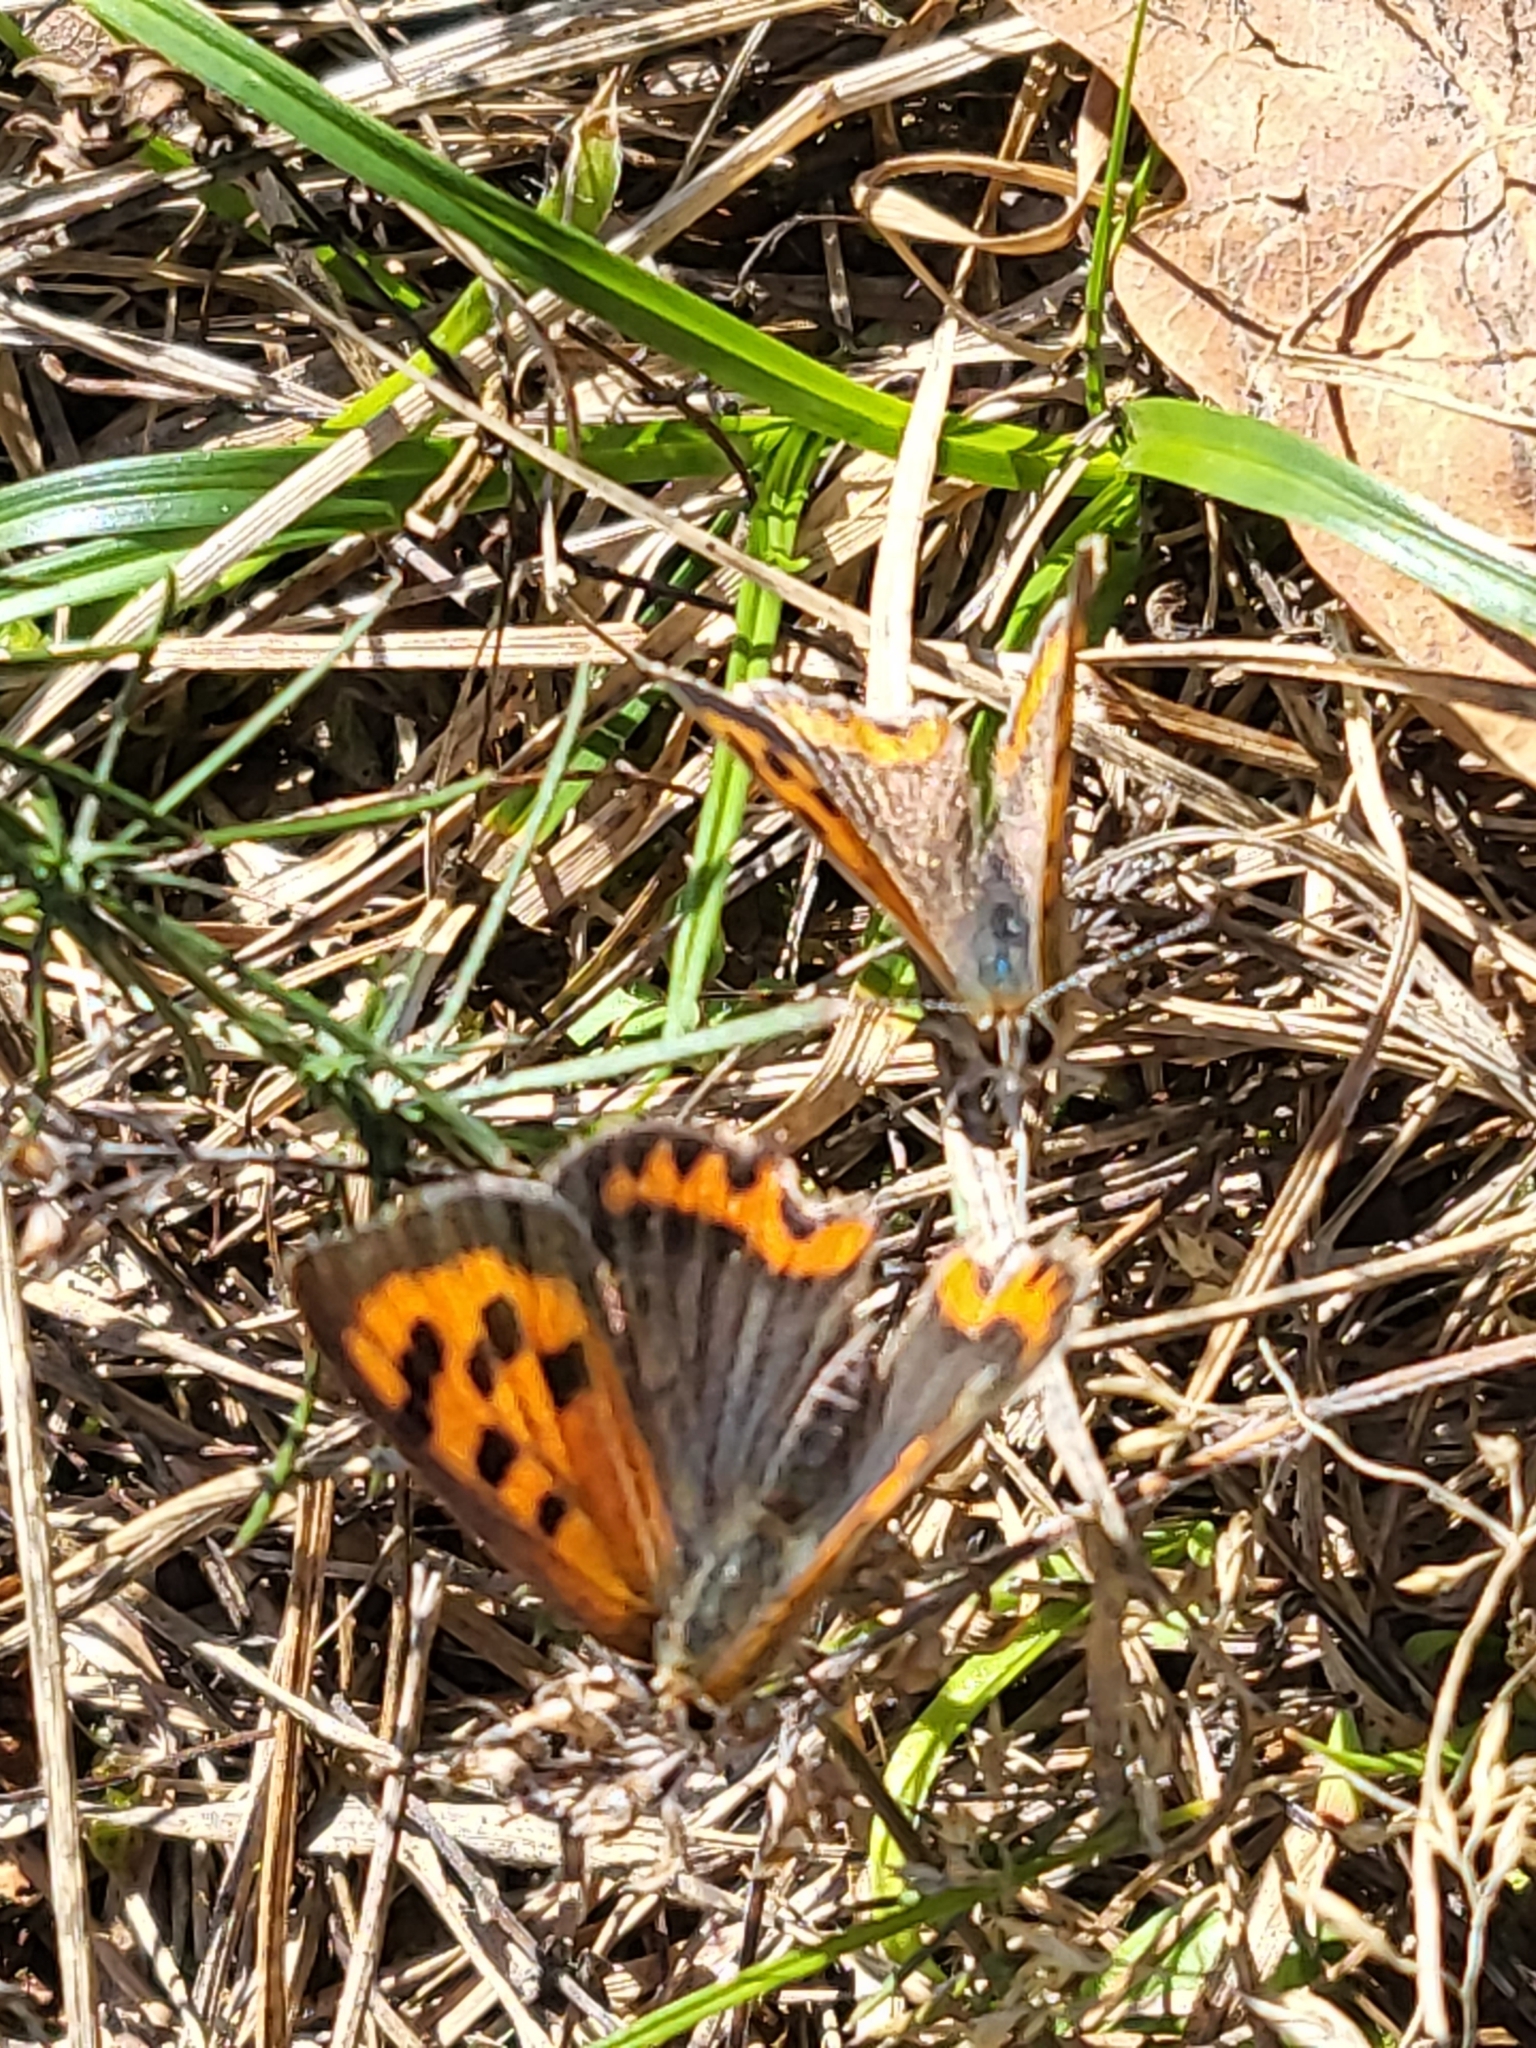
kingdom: Animalia
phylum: Arthropoda
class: Insecta
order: Lepidoptera
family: Lycaenidae
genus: Lycaena
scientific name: Lycaena phlaeas
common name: Small copper
